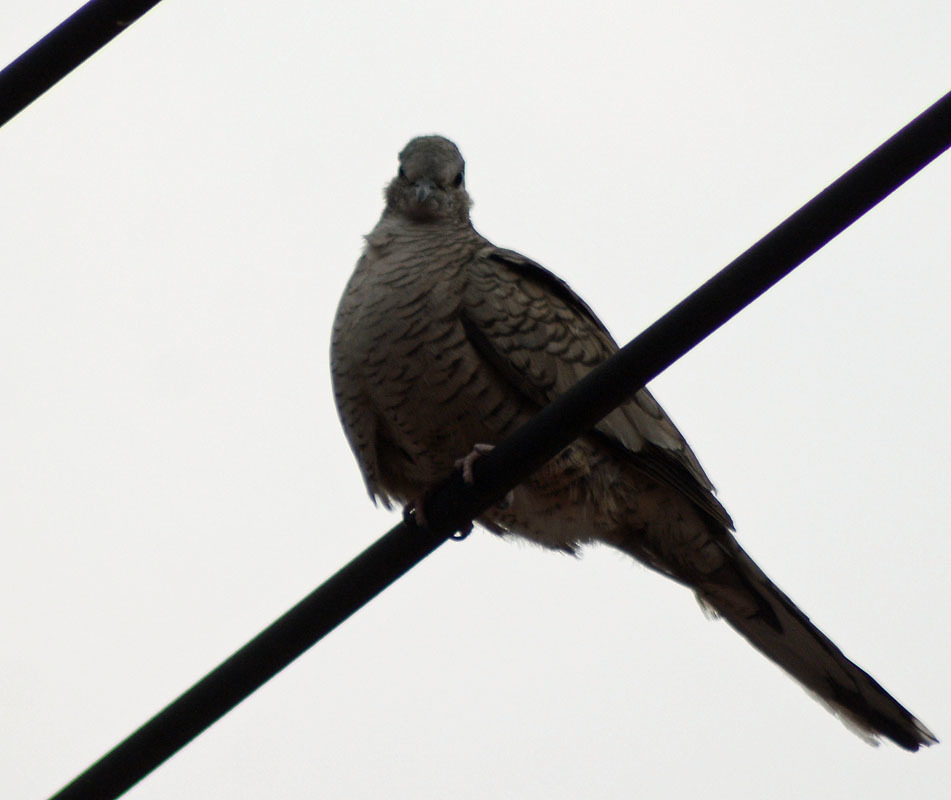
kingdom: Animalia
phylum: Chordata
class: Aves
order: Columbiformes
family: Columbidae
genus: Columbina
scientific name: Columbina inca
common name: Inca dove
